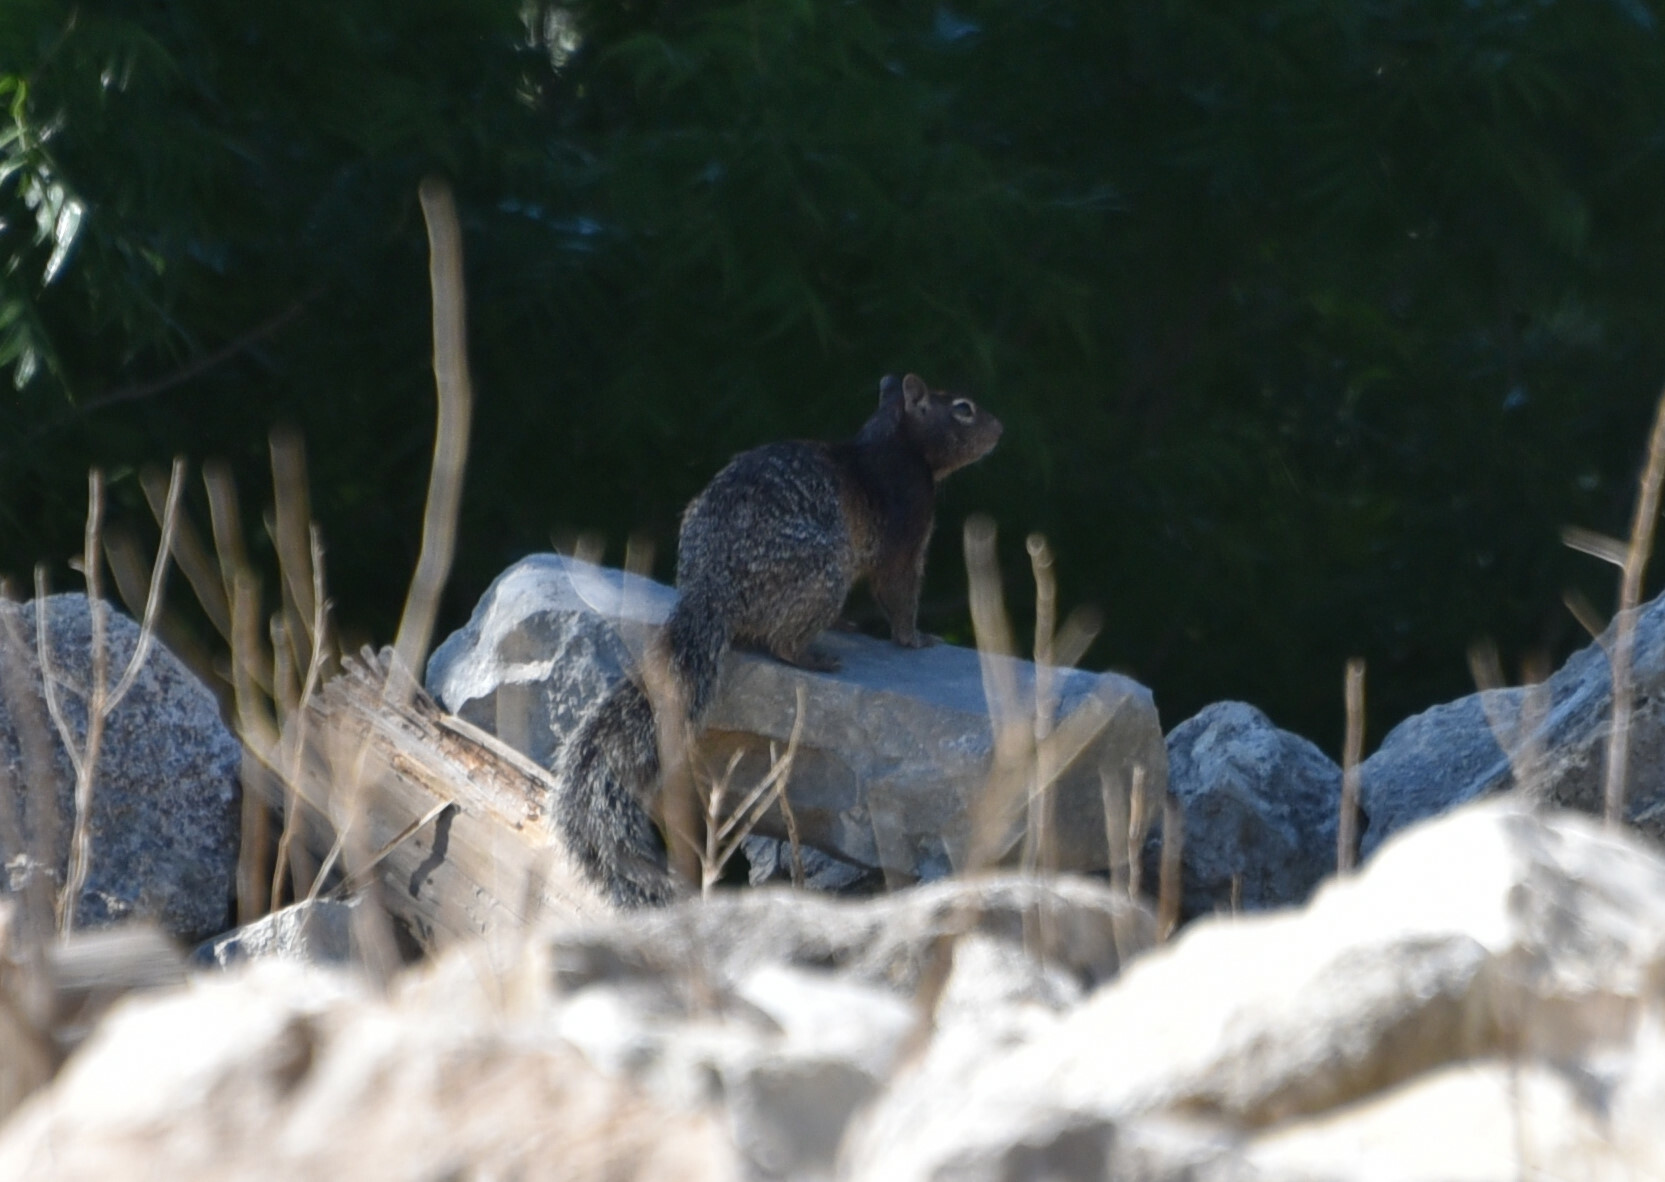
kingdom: Animalia
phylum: Chordata
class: Mammalia
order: Rodentia
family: Sciuridae
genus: Otospermophilus
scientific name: Otospermophilus variegatus
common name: Rock squirrel
